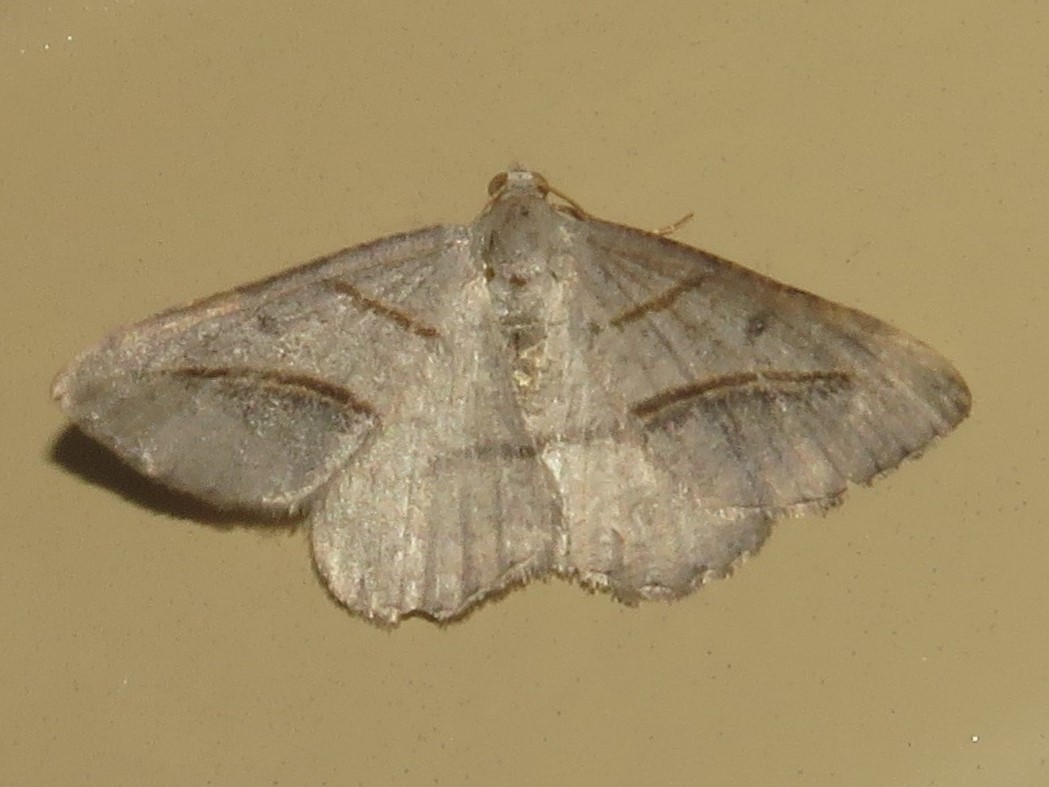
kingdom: Animalia
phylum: Arthropoda
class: Insecta
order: Lepidoptera
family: Geometridae
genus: Digrammia
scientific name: Digrammia mellistrigata
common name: Yellow-lined angle
